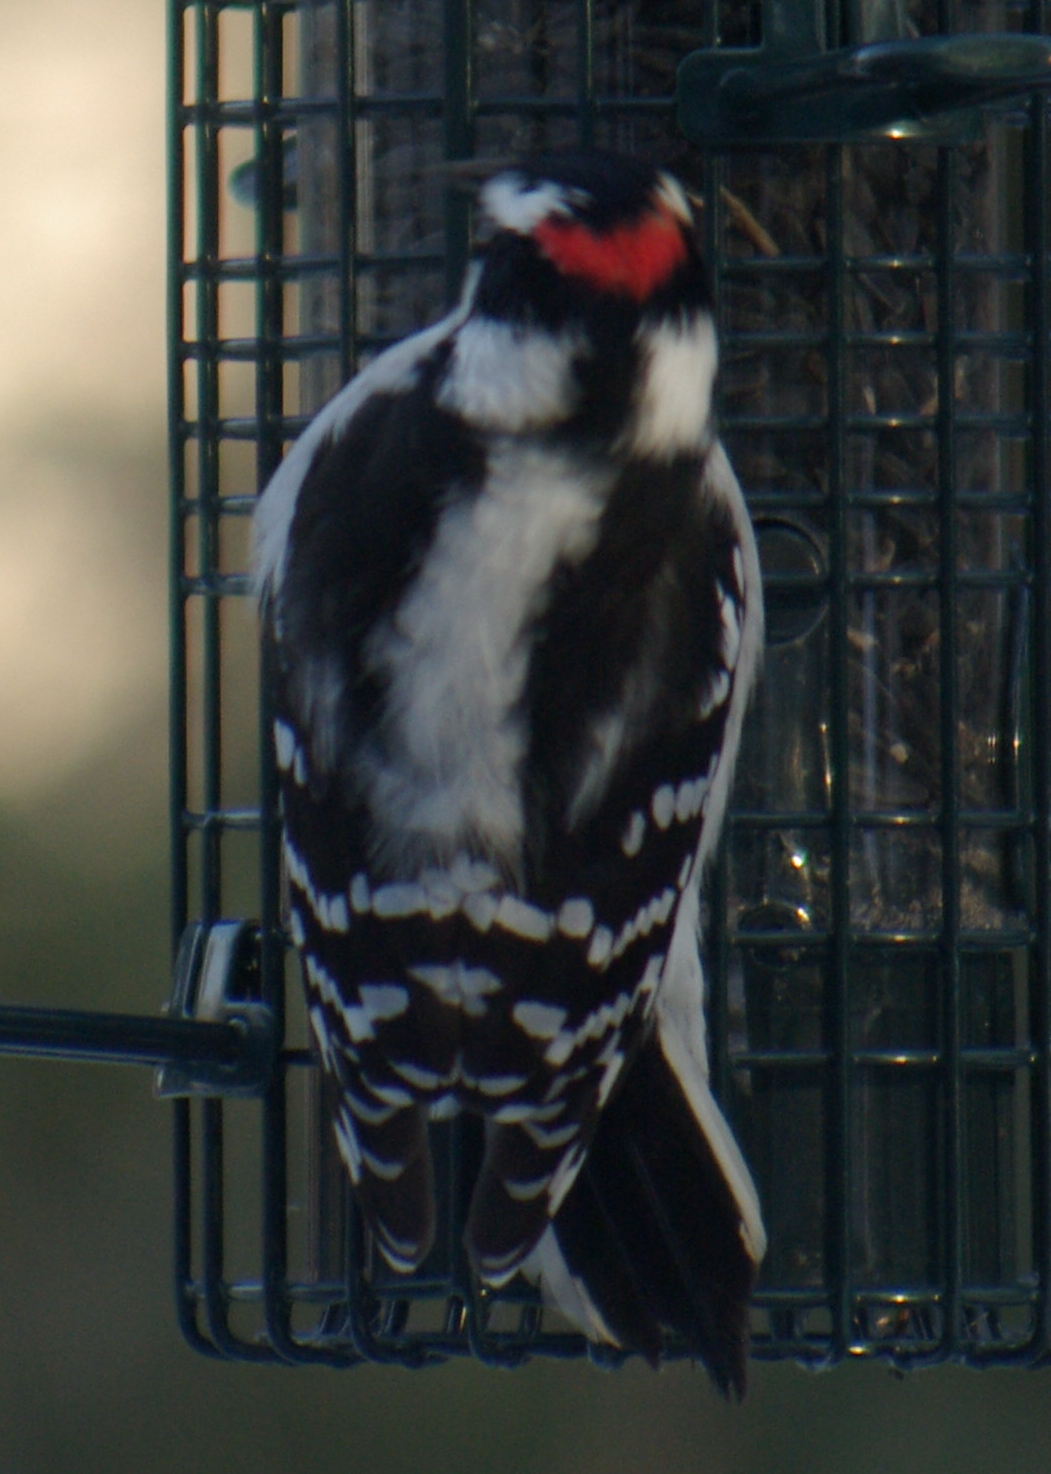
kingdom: Animalia
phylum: Chordata
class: Aves
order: Piciformes
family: Picidae
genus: Dryobates
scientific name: Dryobates pubescens
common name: Downy woodpecker
